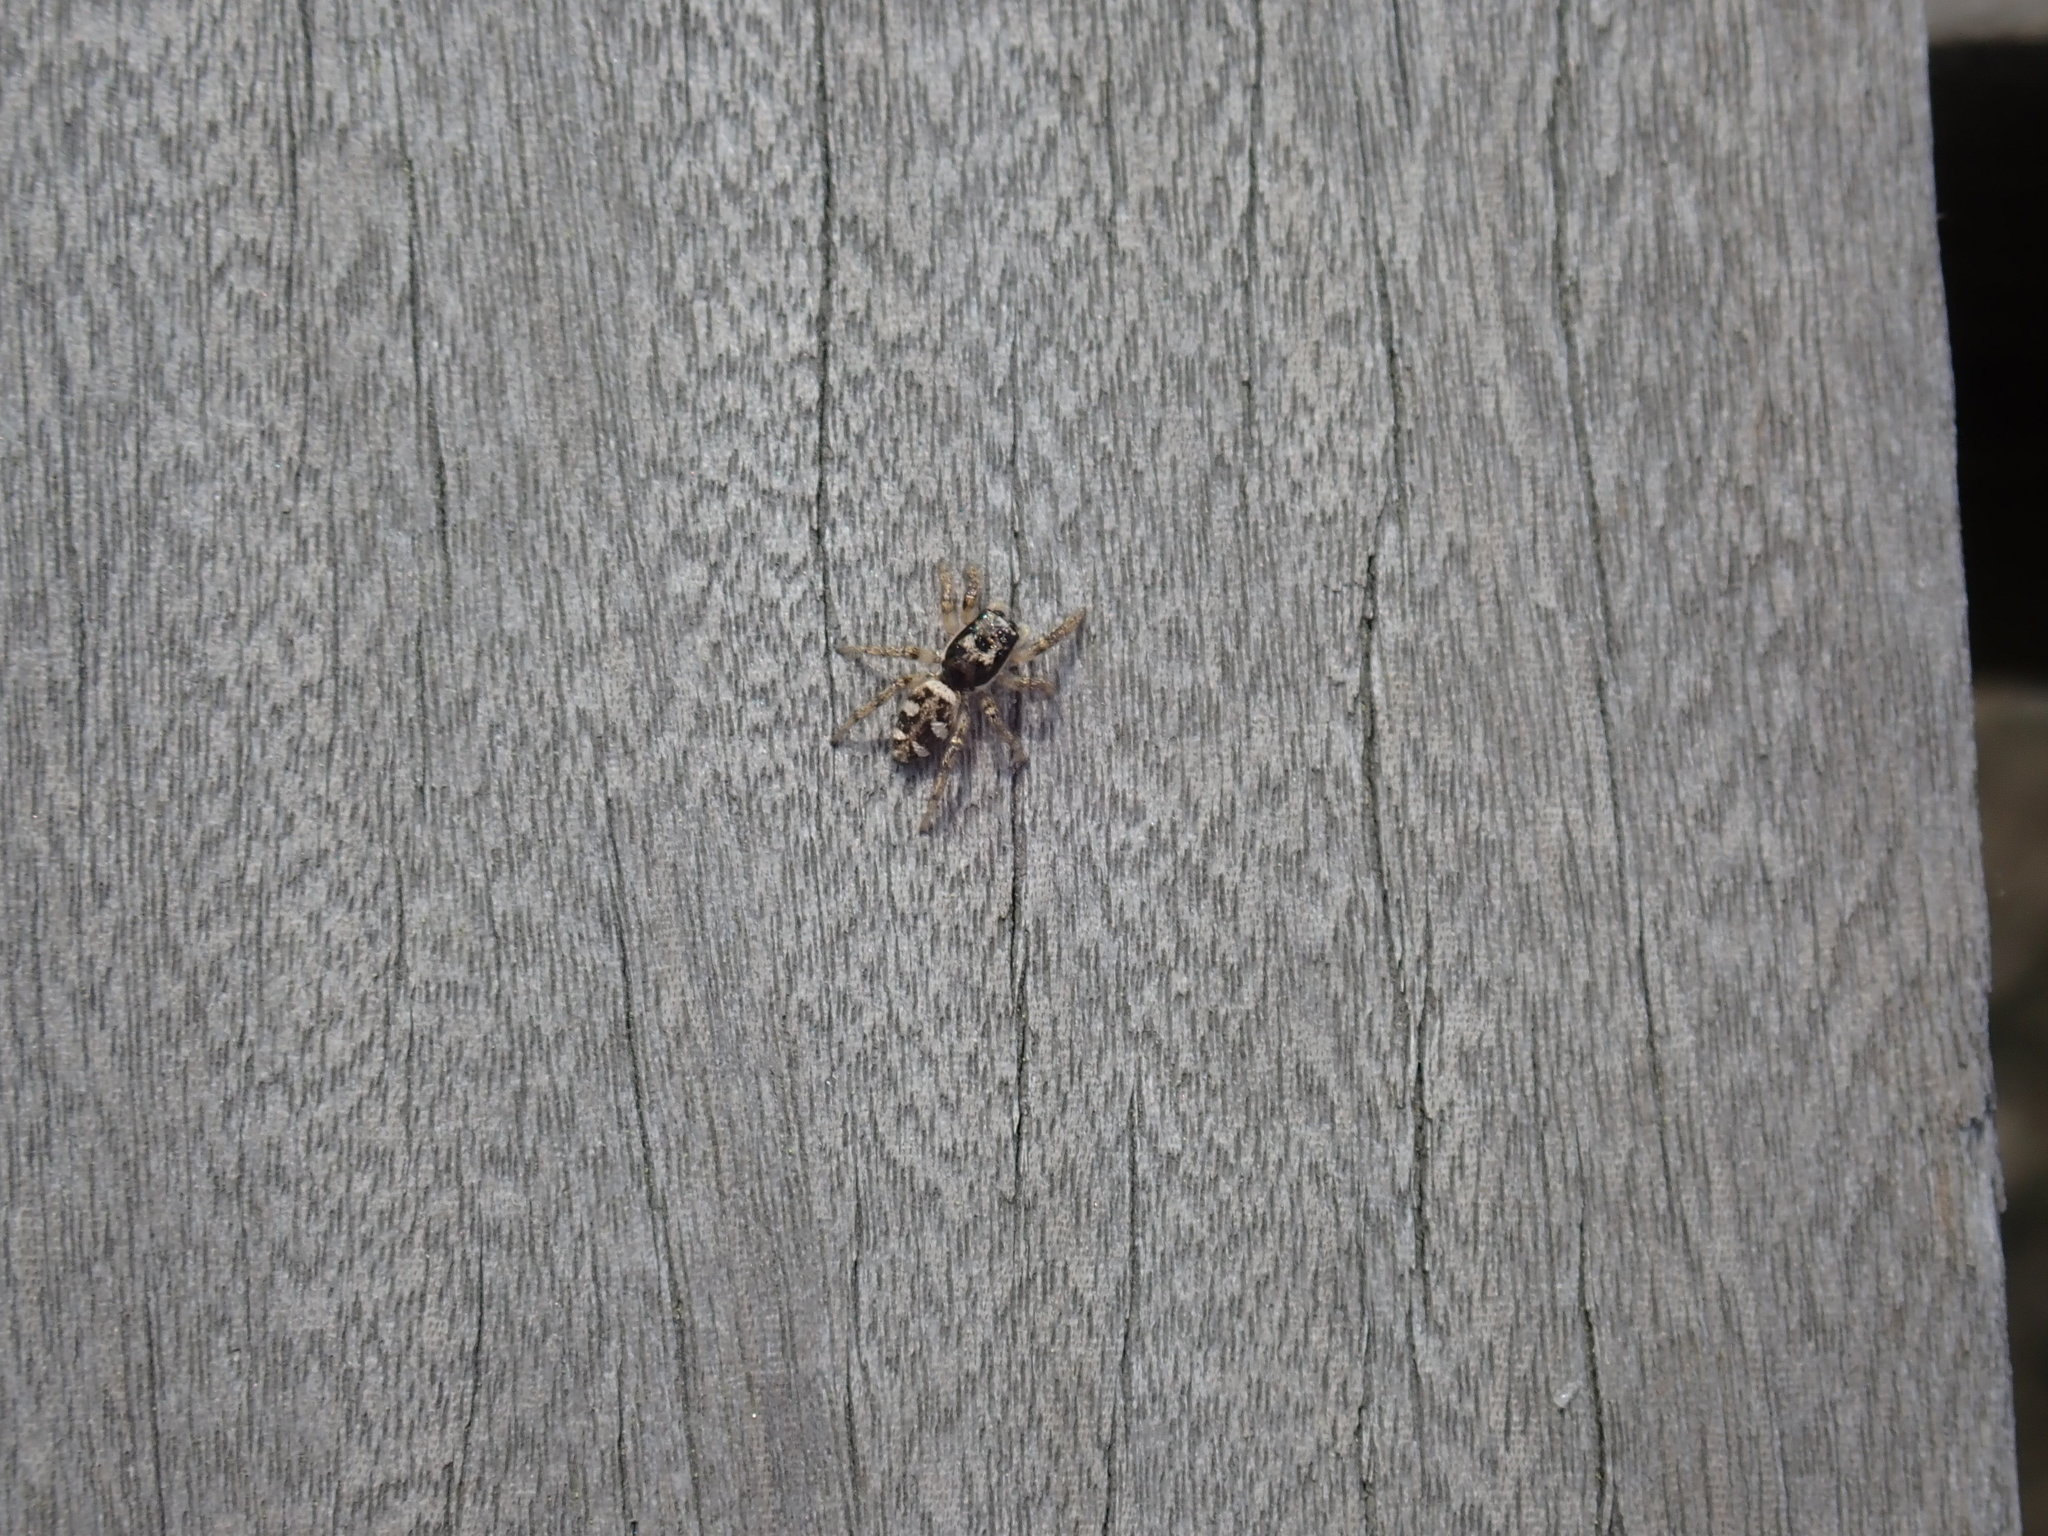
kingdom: Animalia
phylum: Arthropoda
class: Arachnida
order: Araneae
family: Salticidae
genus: Salticus
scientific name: Salticus scenicus
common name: Zebra jumper
